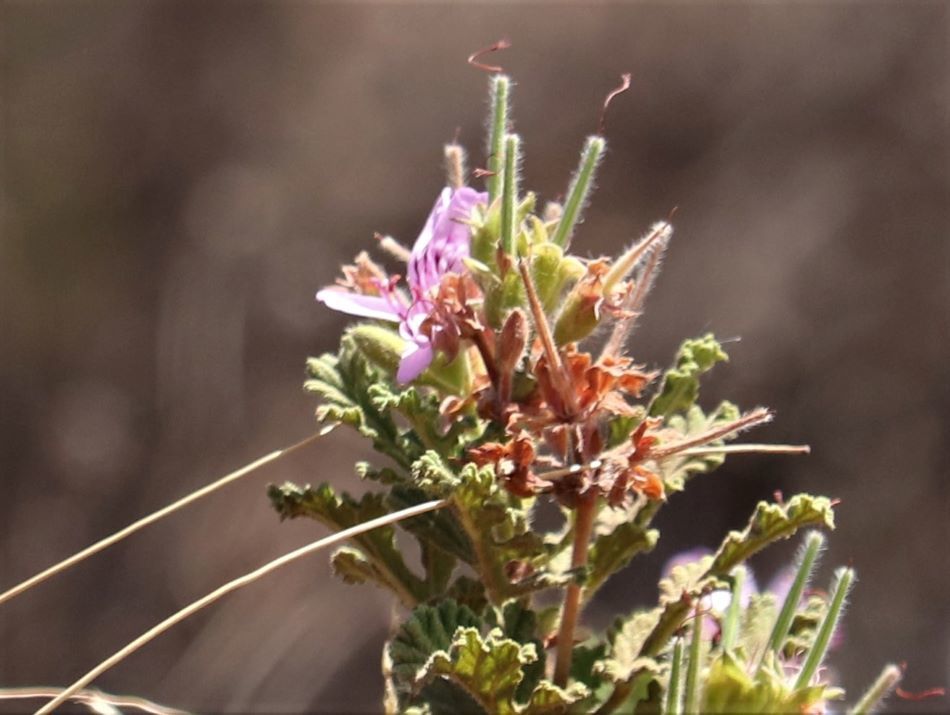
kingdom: Plantae
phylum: Tracheophyta
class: Magnoliopsida
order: Geraniales
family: Geraniaceae
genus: Pelargonium
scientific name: Pelargonium panduriforme
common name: Oakleaf garden geranium
